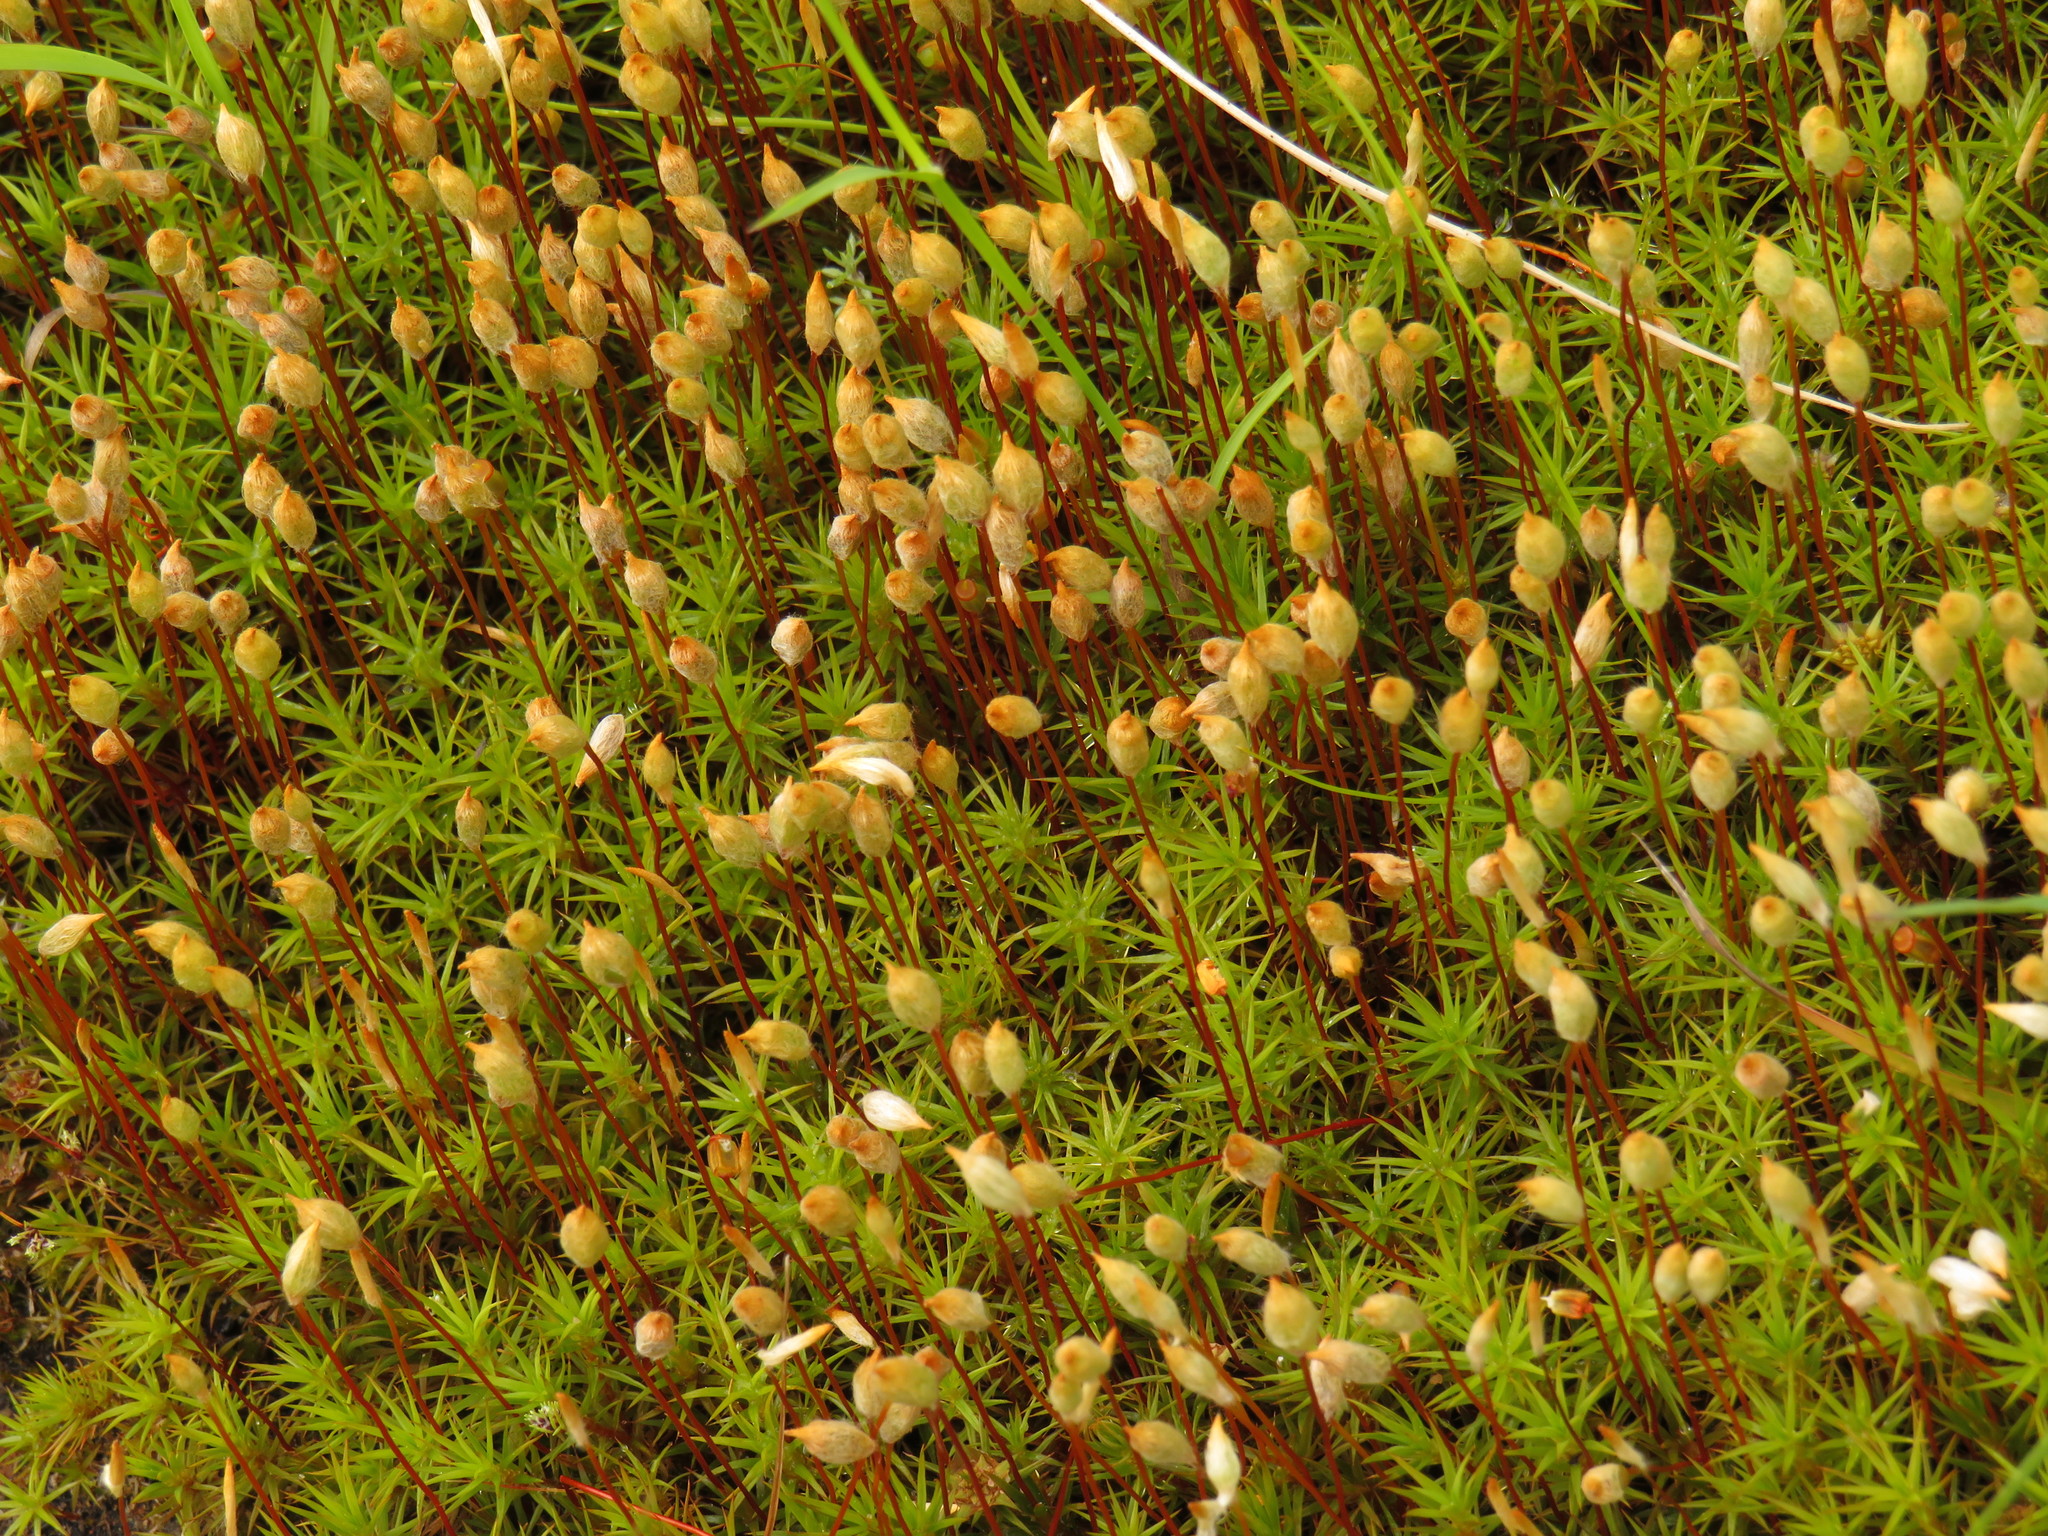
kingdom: Plantae
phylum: Bryophyta
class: Polytrichopsida
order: Polytrichales
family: Polytrichaceae
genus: Polytrichum
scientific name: Polytrichum juniperinum
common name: Juniper haircap moss
